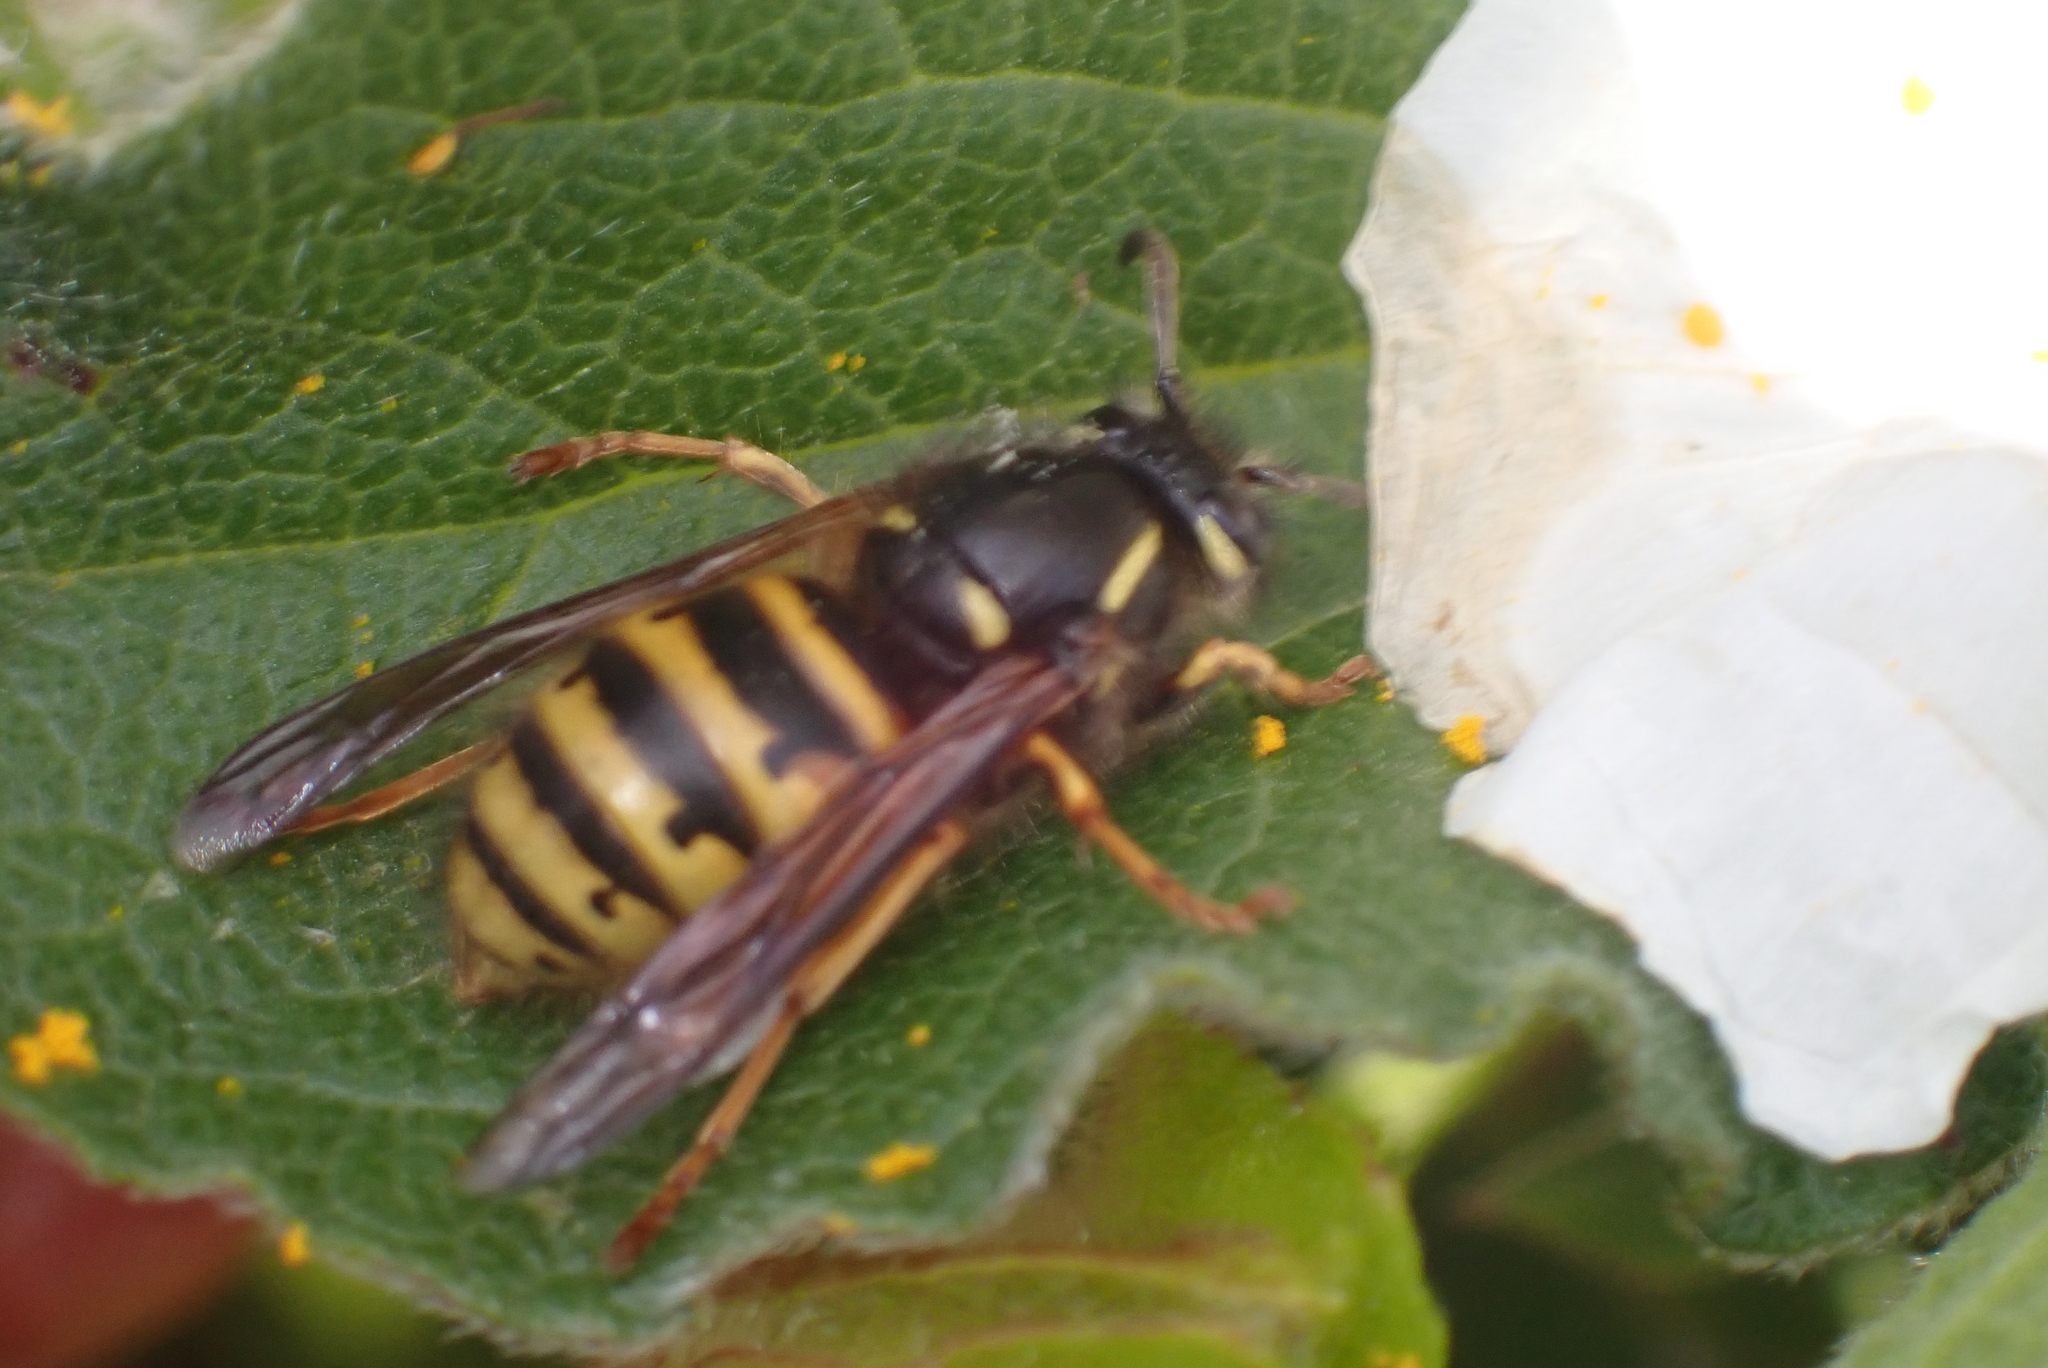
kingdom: Animalia
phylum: Arthropoda
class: Insecta
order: Hymenoptera
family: Vespidae
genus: Dolichovespula
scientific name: Dolichovespula norwegica
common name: Norwegian wasp
